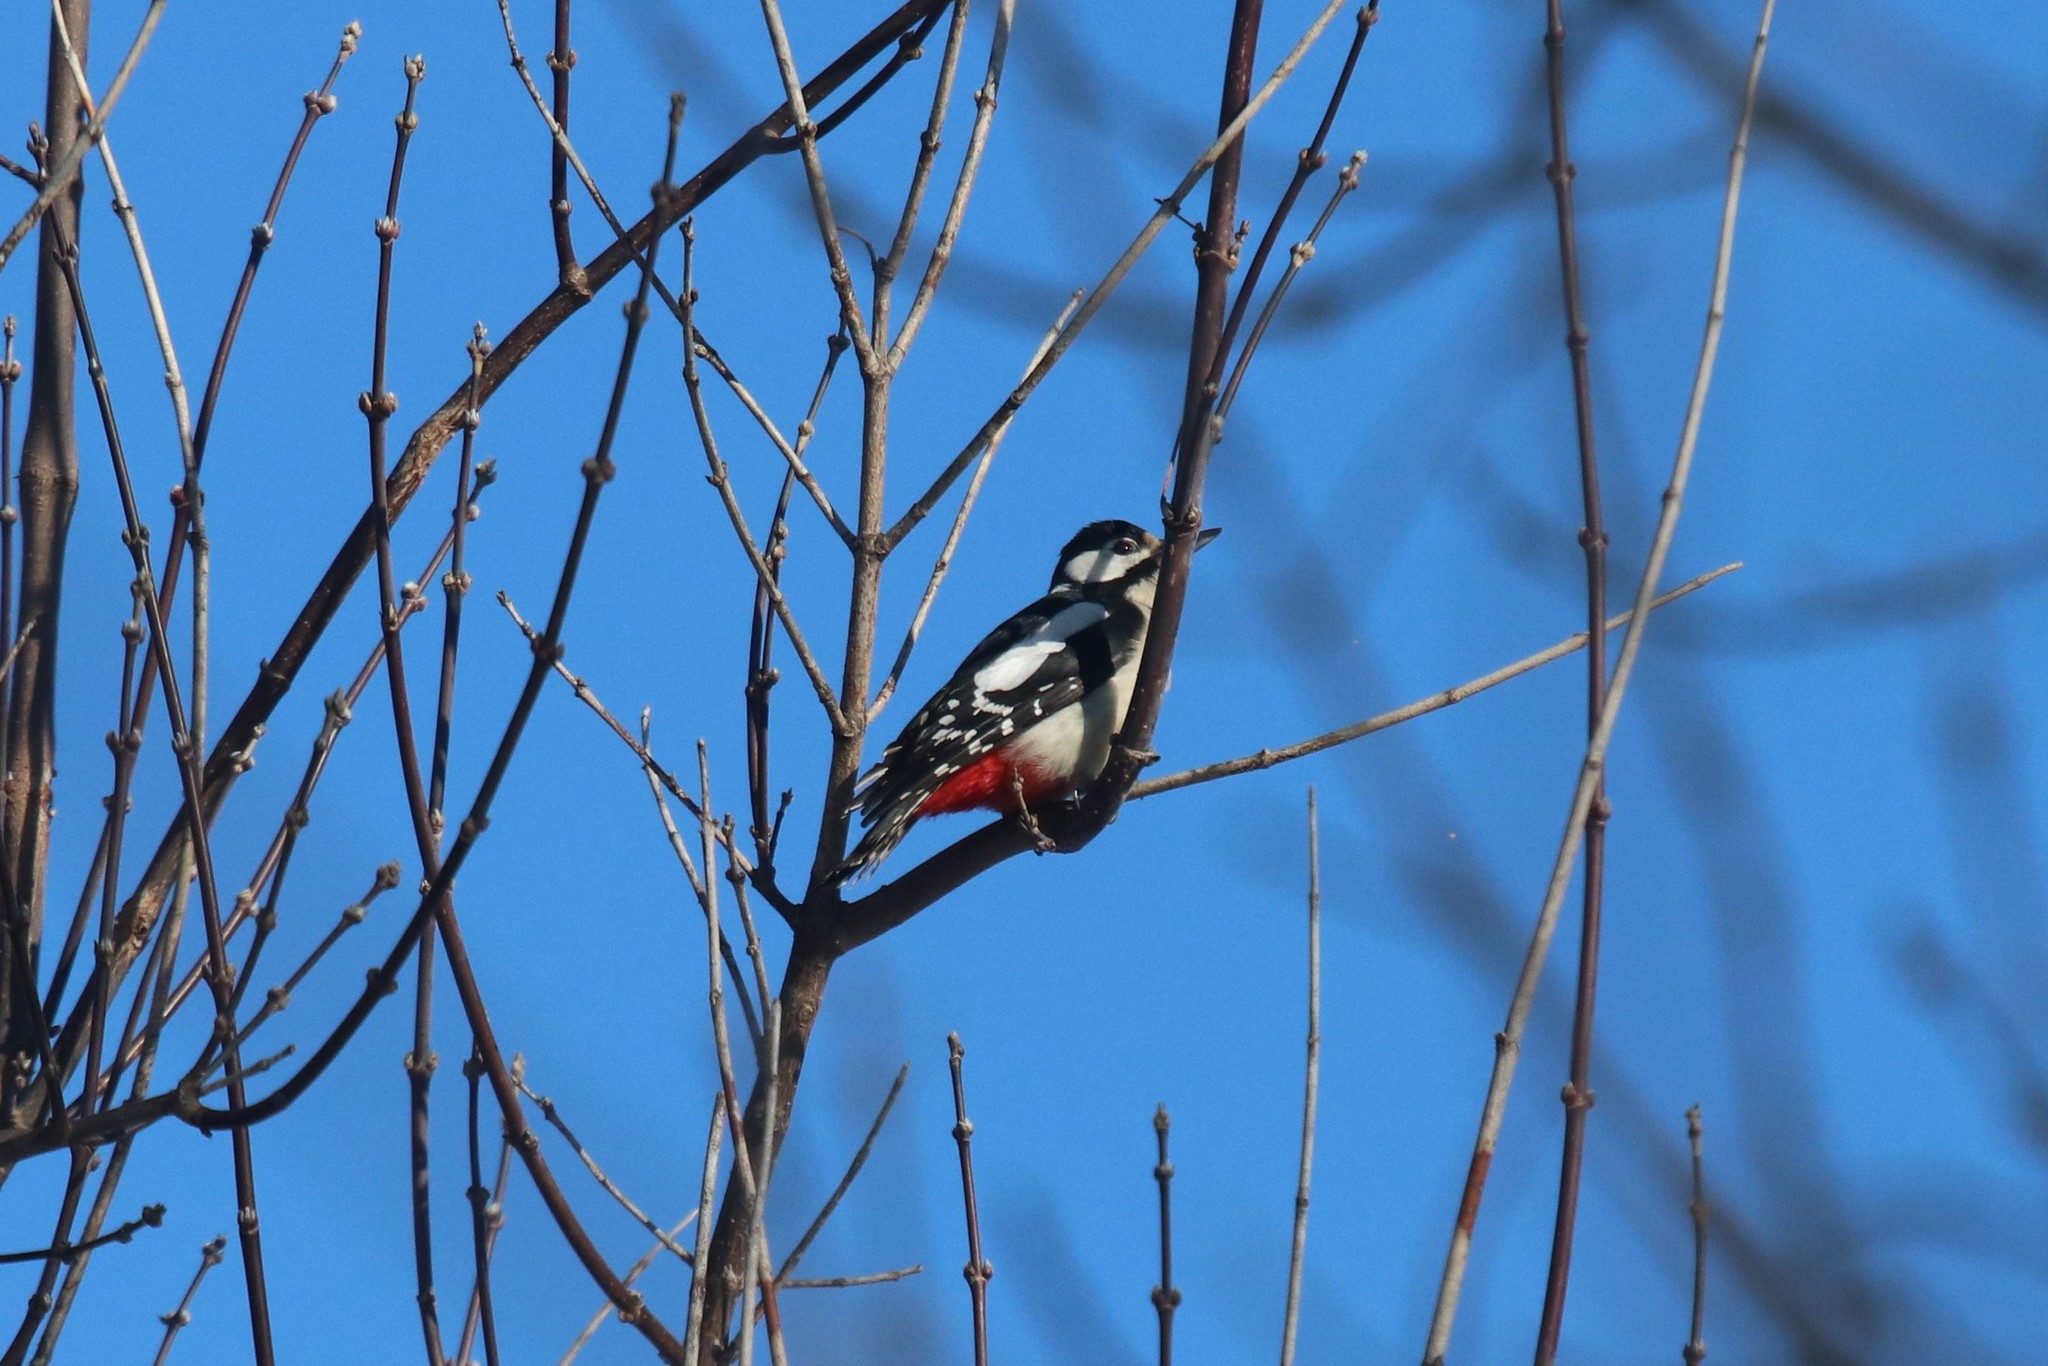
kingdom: Animalia
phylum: Chordata
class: Aves
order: Piciformes
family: Picidae
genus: Dendrocopos
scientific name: Dendrocopos major
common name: Great spotted woodpecker
